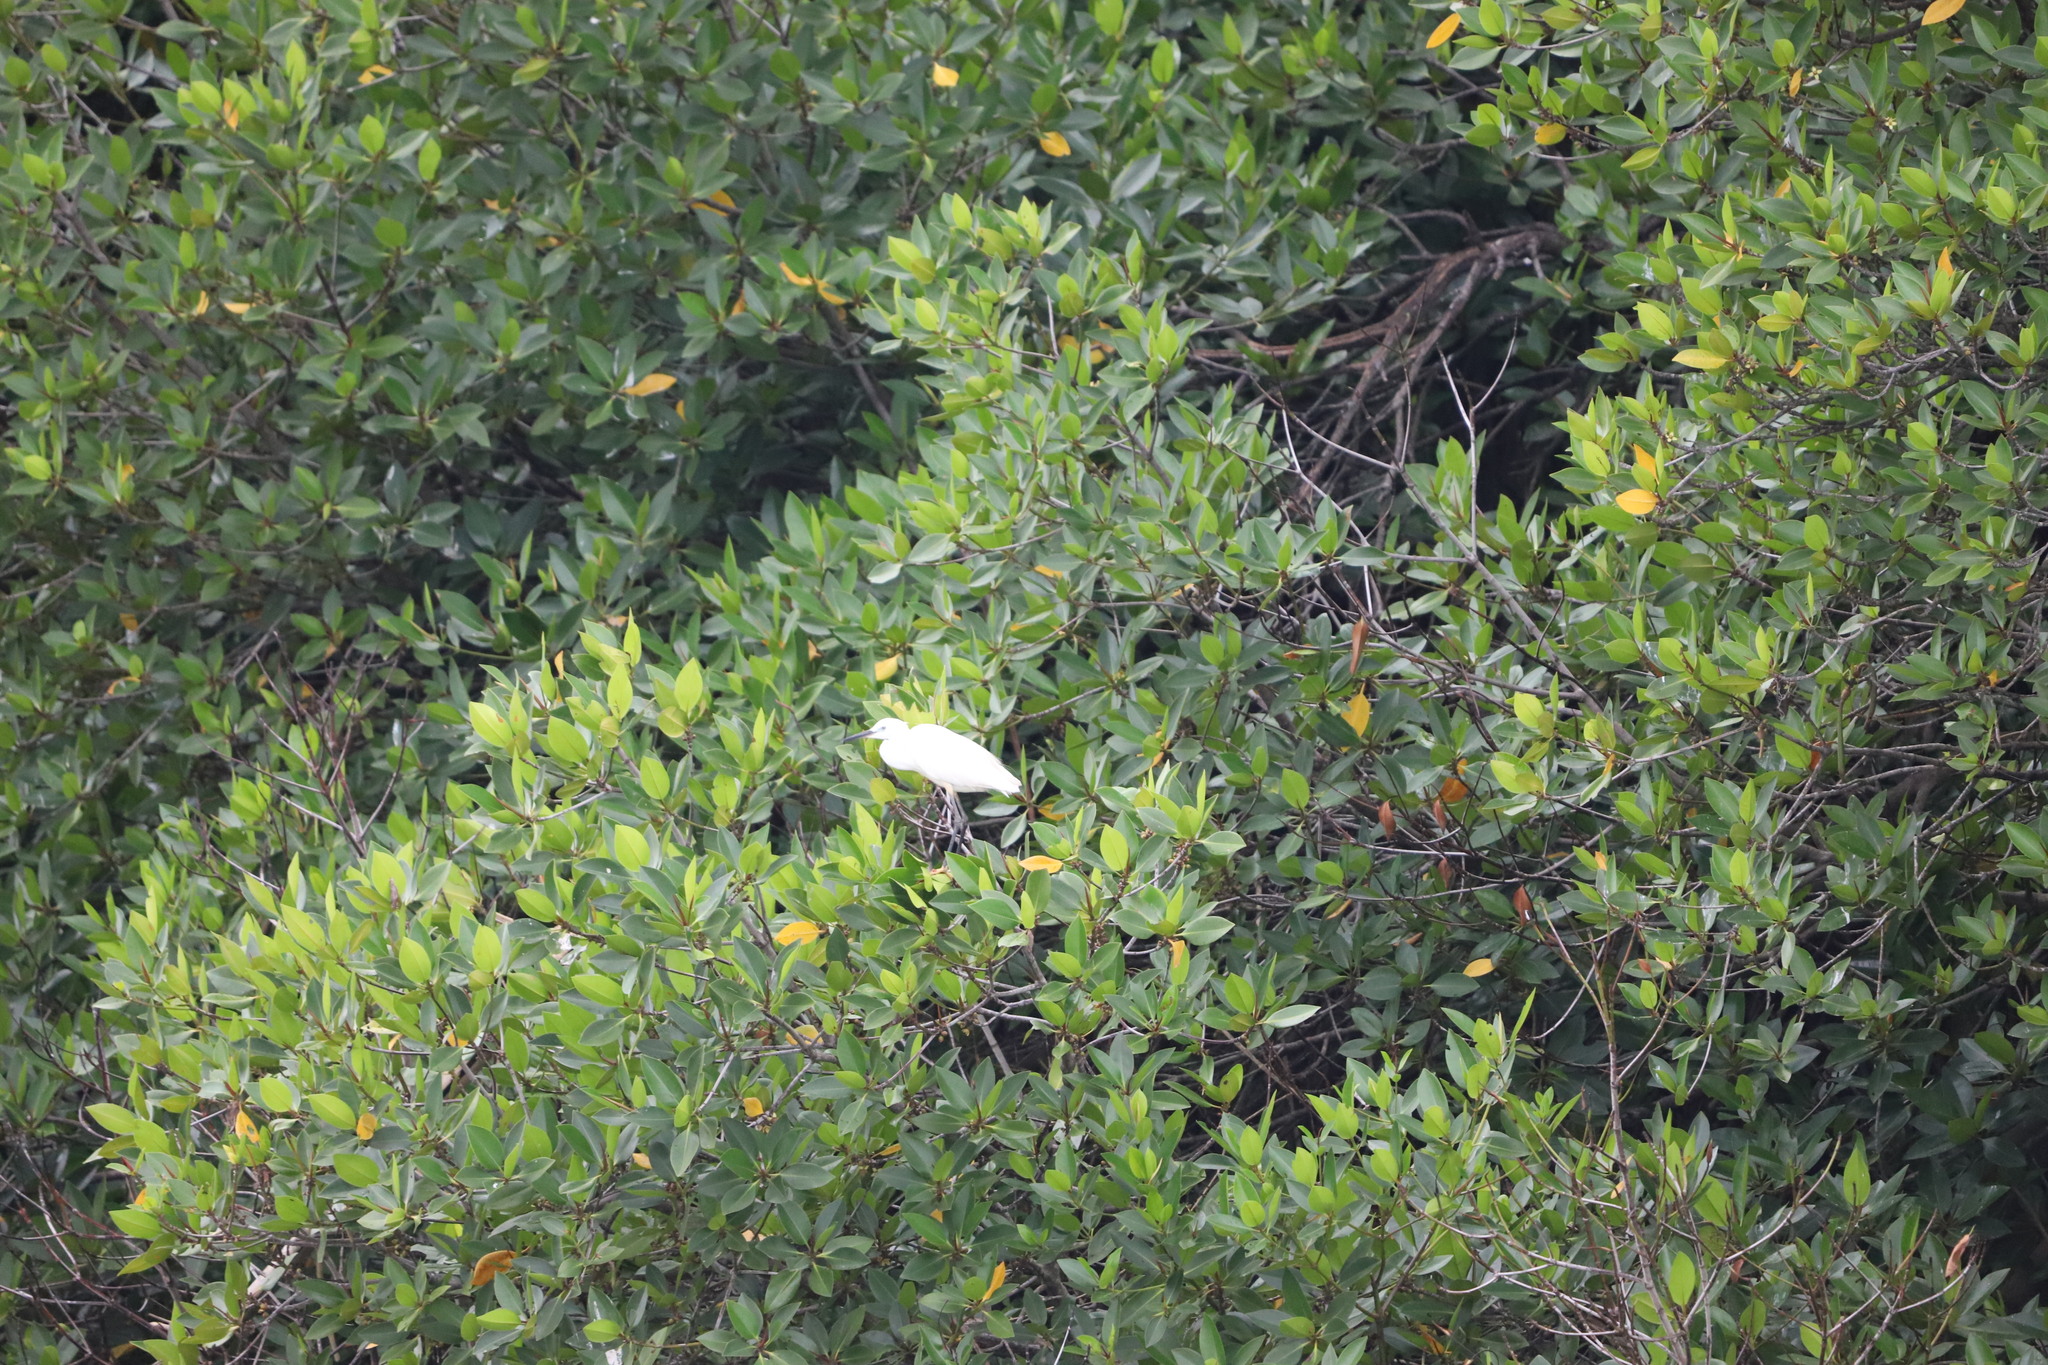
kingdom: Animalia
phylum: Chordata
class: Aves
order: Pelecaniformes
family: Ardeidae
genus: Egretta
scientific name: Egretta garzetta
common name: Little egret
